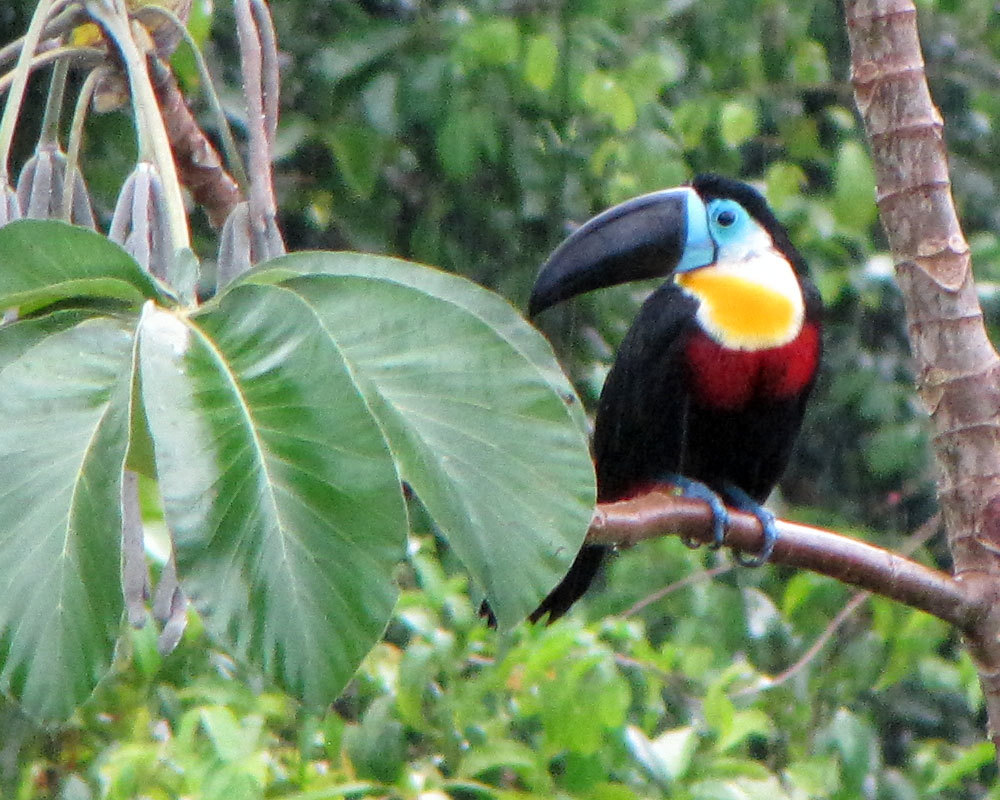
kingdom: Animalia
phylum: Chordata
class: Aves
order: Piciformes
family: Ramphastidae
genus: Ramphastos
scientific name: Ramphastos vitellinus
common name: Channel-billed toucan
